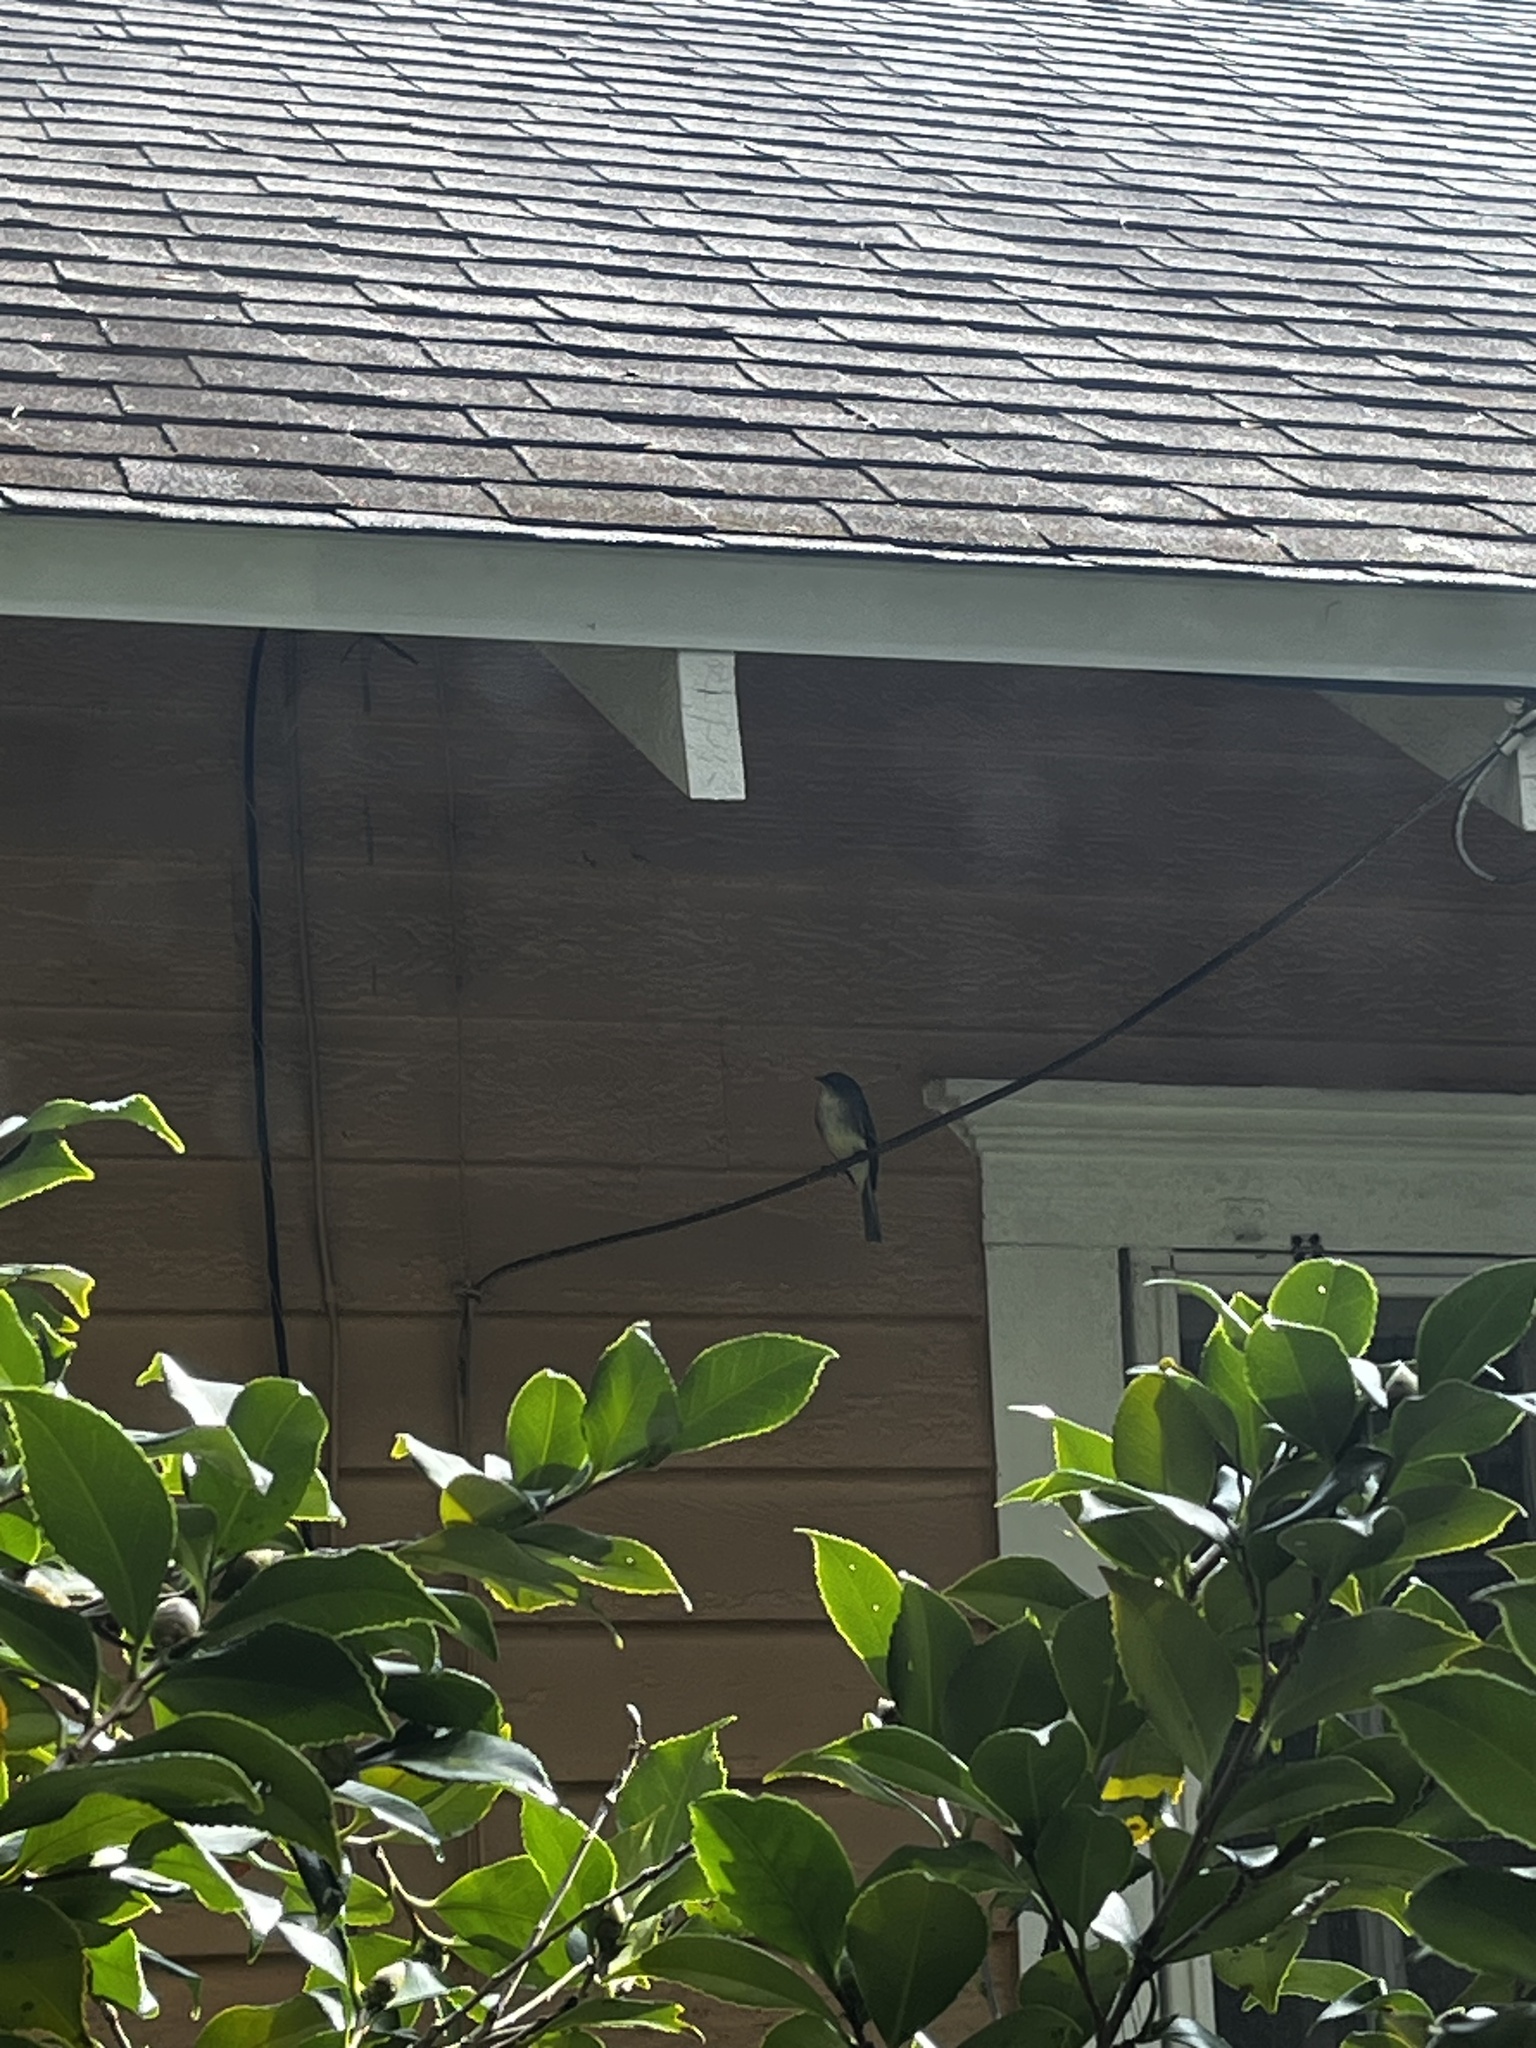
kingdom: Animalia
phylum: Chordata
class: Aves
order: Passeriformes
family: Tyrannidae
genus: Sayornis
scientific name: Sayornis phoebe
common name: Eastern phoebe
